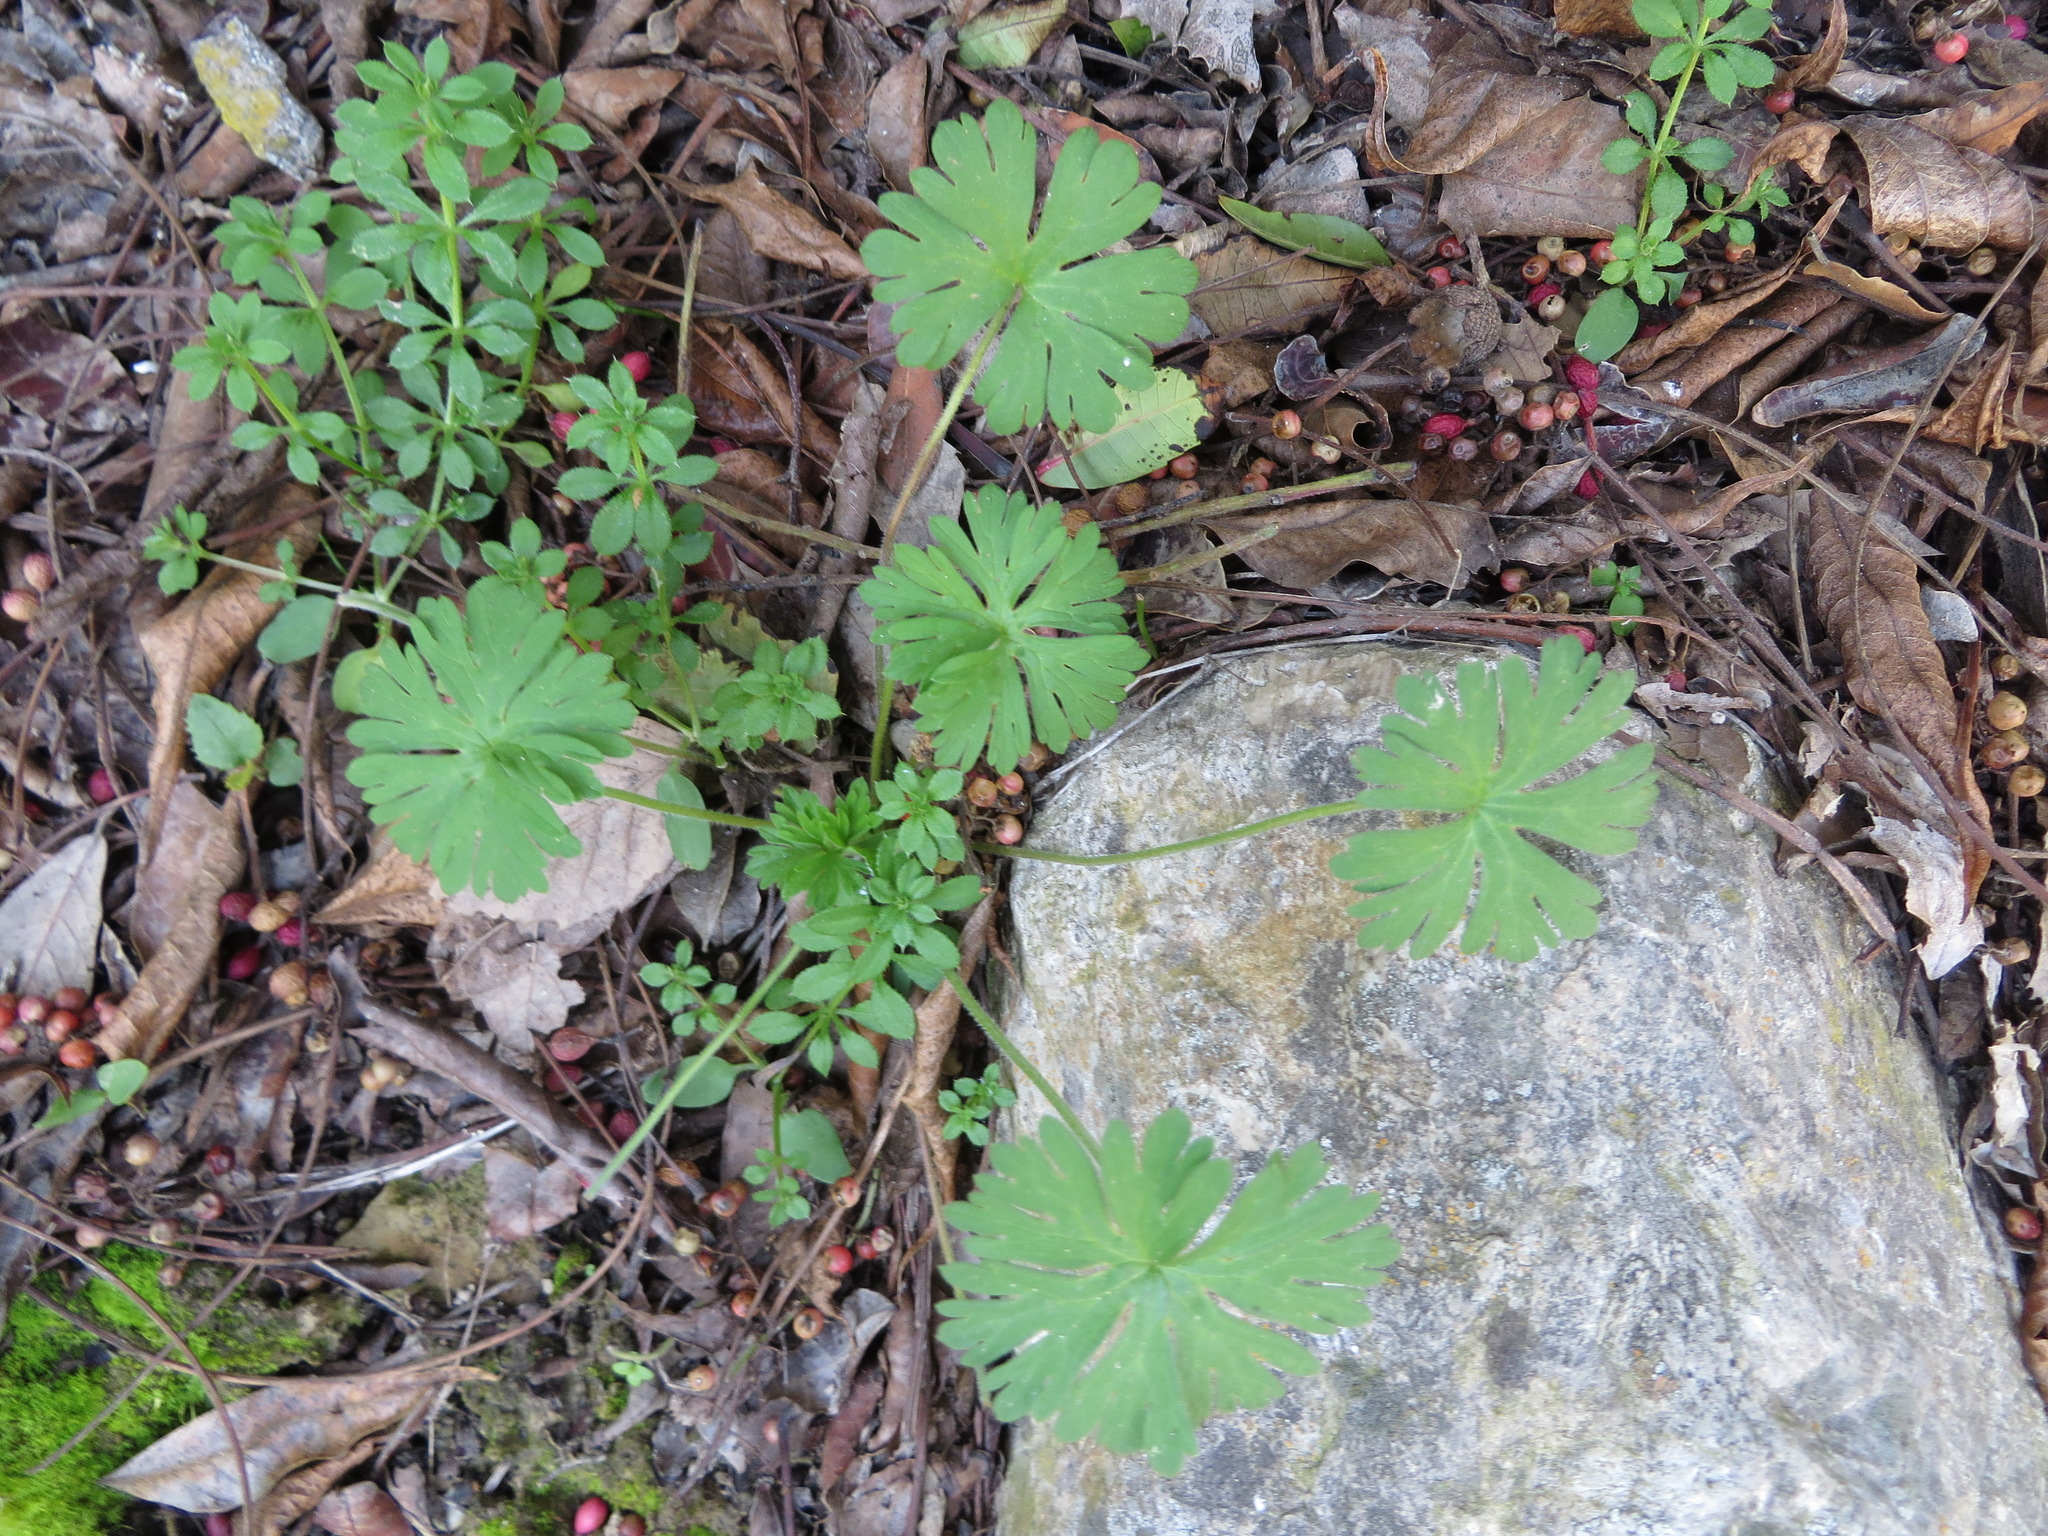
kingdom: Plantae
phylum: Tracheophyta
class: Magnoliopsida
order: Geraniales
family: Geraniaceae
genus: Geranium
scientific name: Geranium
